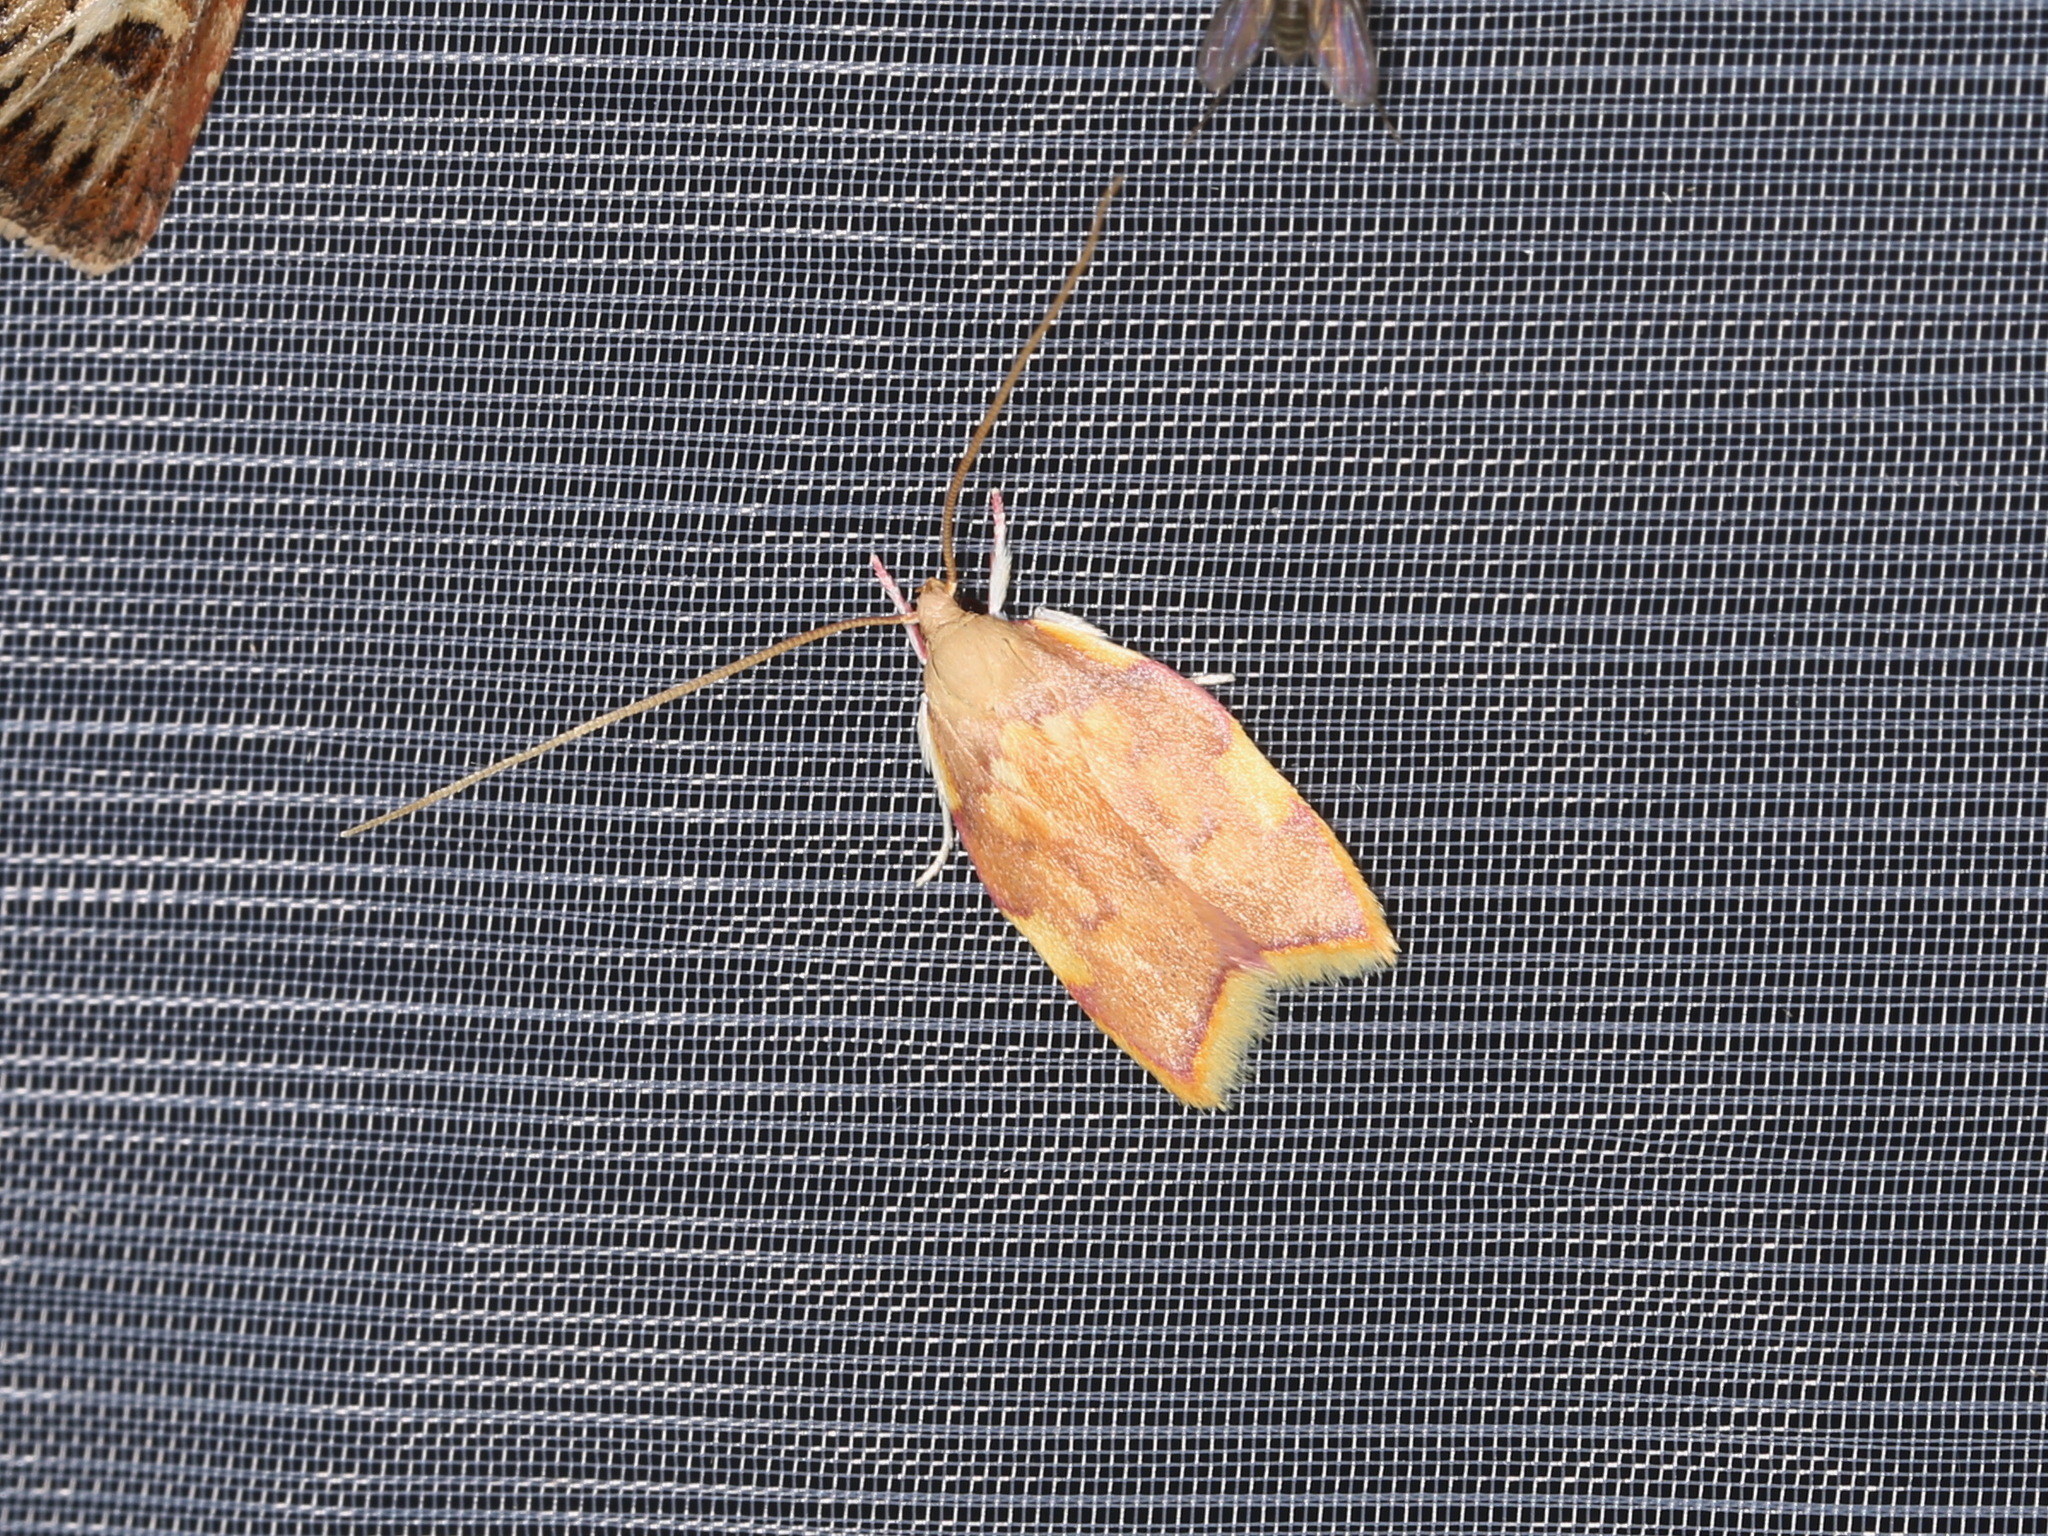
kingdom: Animalia
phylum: Arthropoda
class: Insecta
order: Lepidoptera
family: Peleopodidae
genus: Carcina
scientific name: Carcina quercana
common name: Moth
